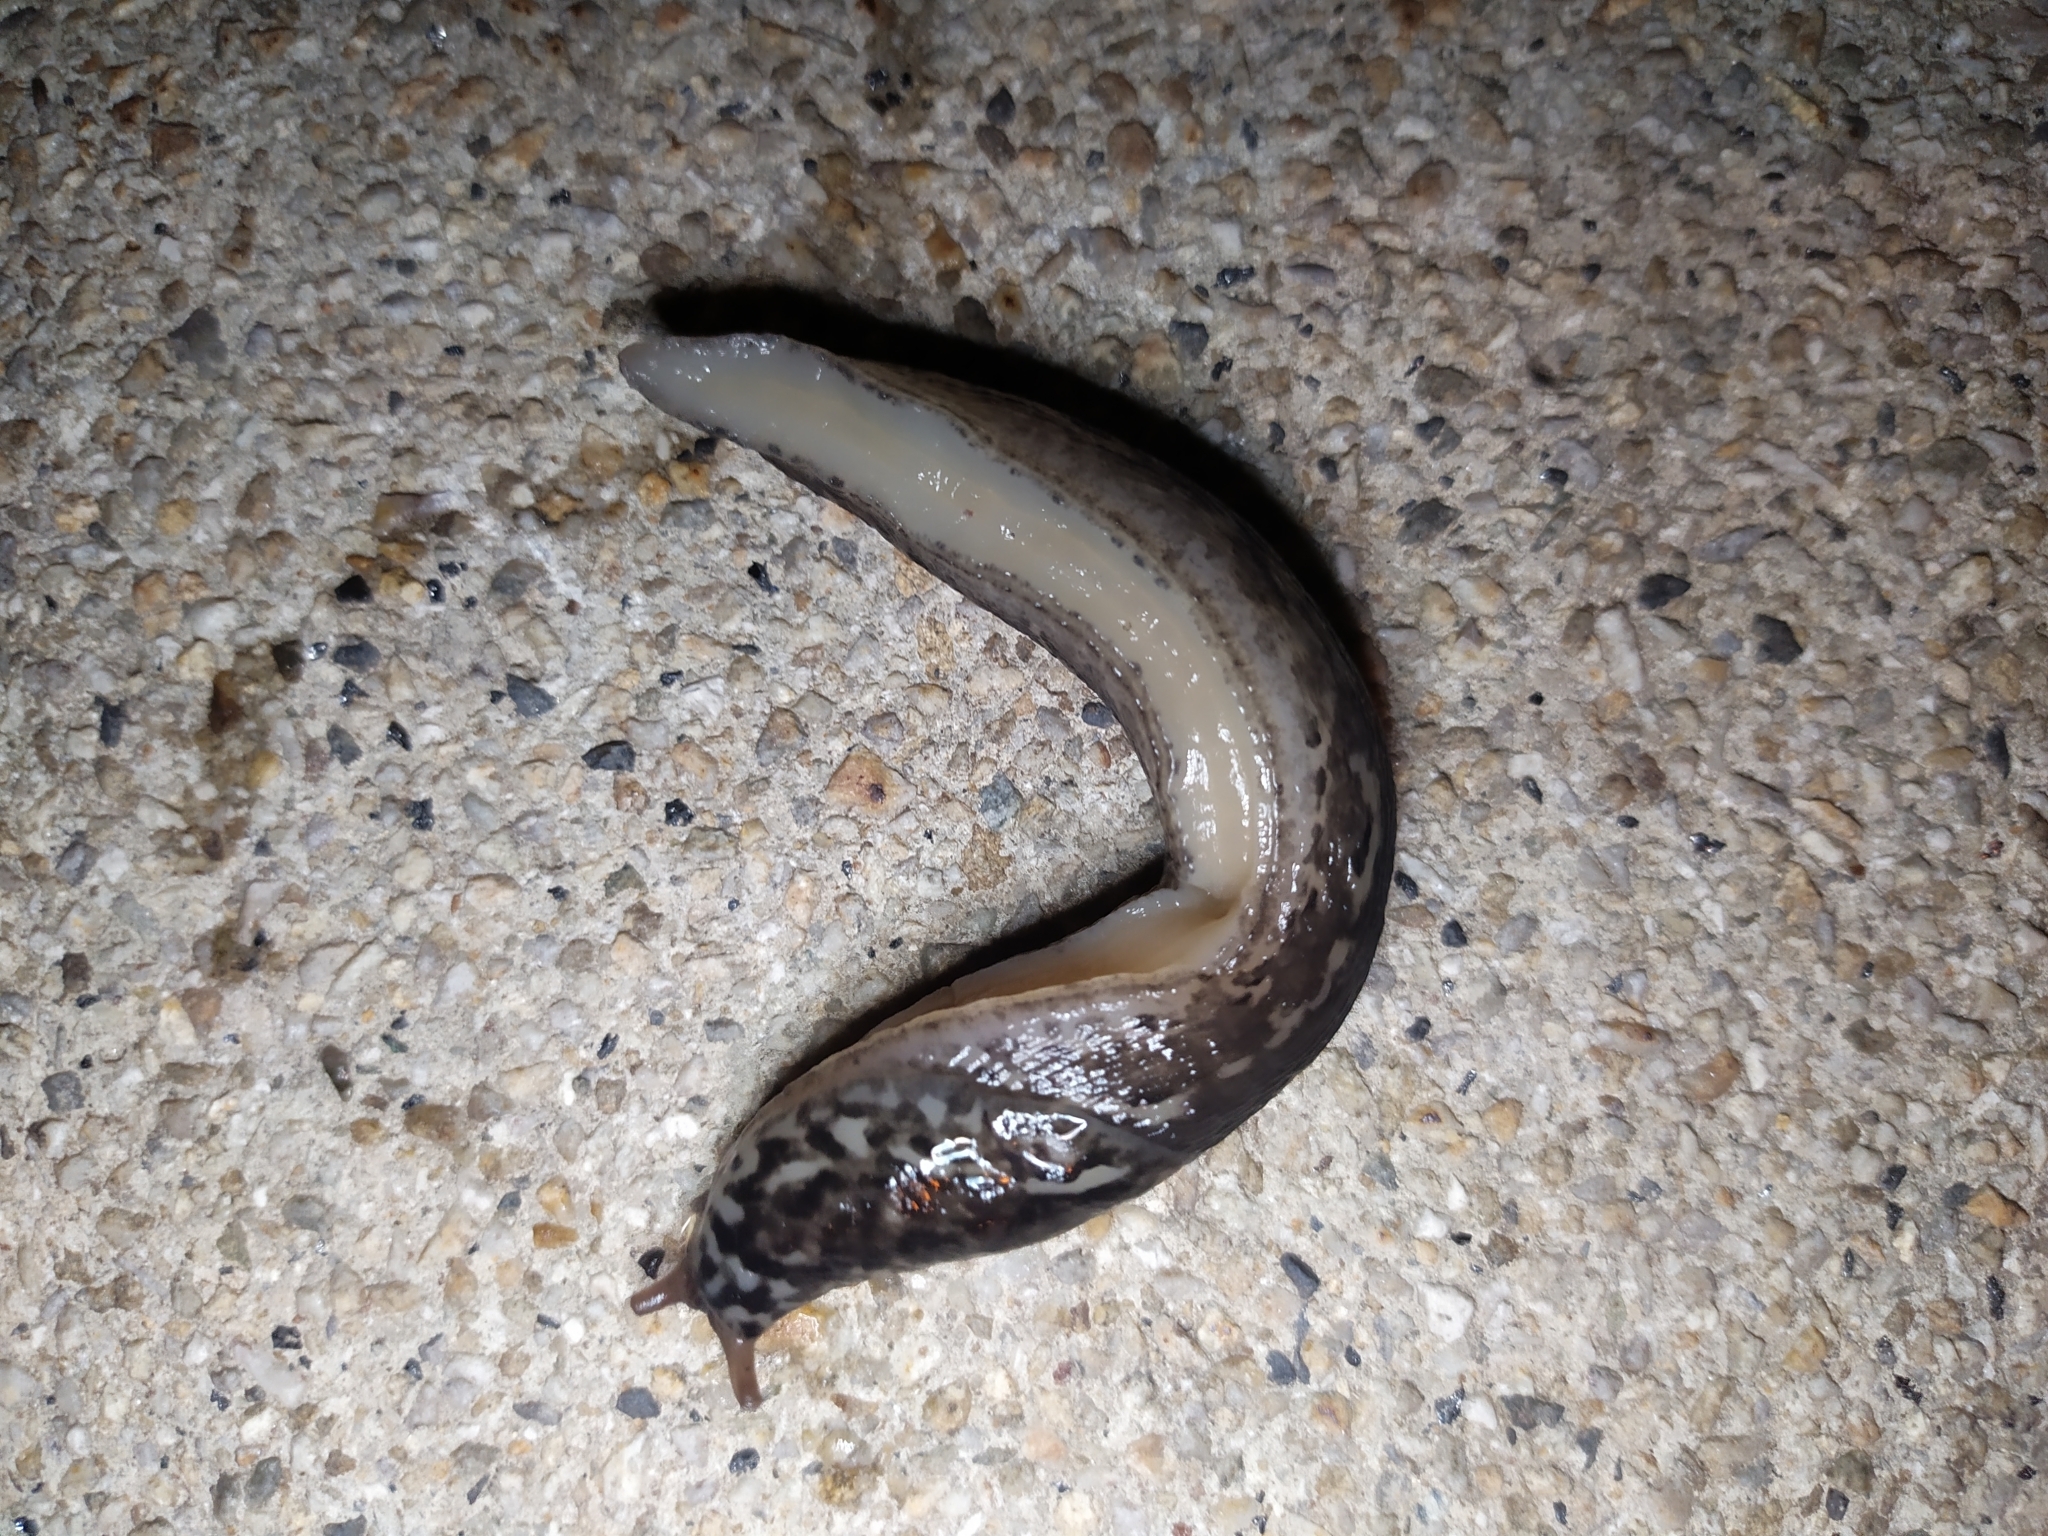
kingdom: Animalia
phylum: Mollusca
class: Gastropoda
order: Stylommatophora
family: Limacidae
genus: Limax
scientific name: Limax maximus
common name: Great grey slug
